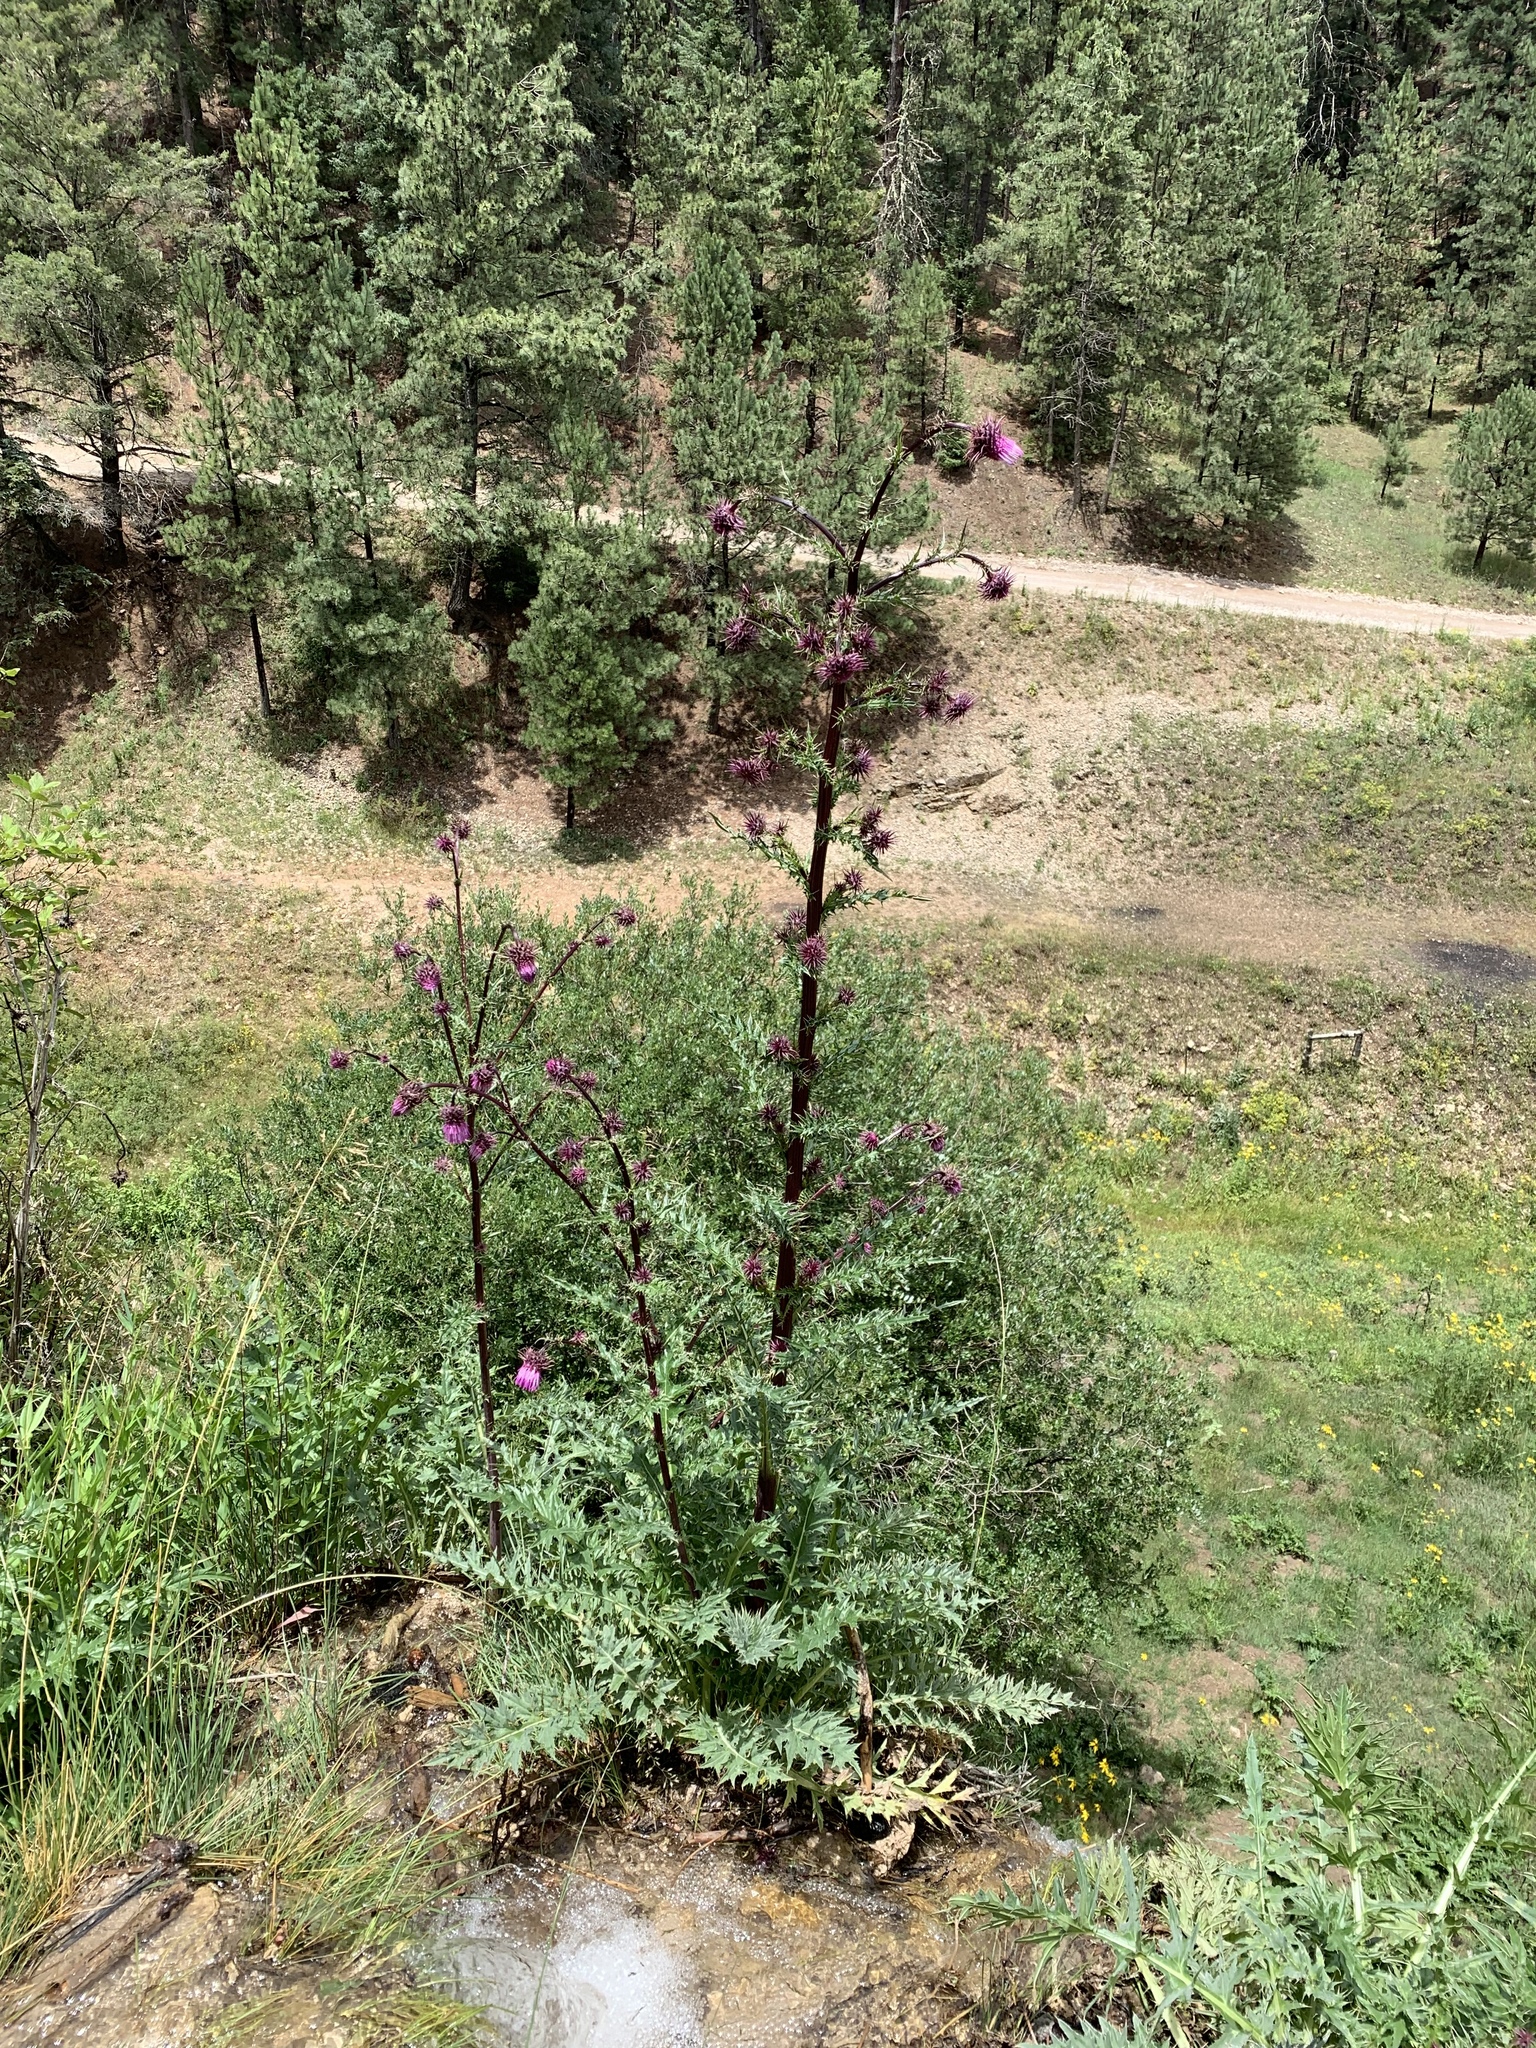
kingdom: Plantae
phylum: Tracheophyta
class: Magnoliopsida
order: Asterales
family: Asteraceae
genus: Cirsium
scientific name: Cirsium vinaceum
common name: Sacramento mountain thistle
